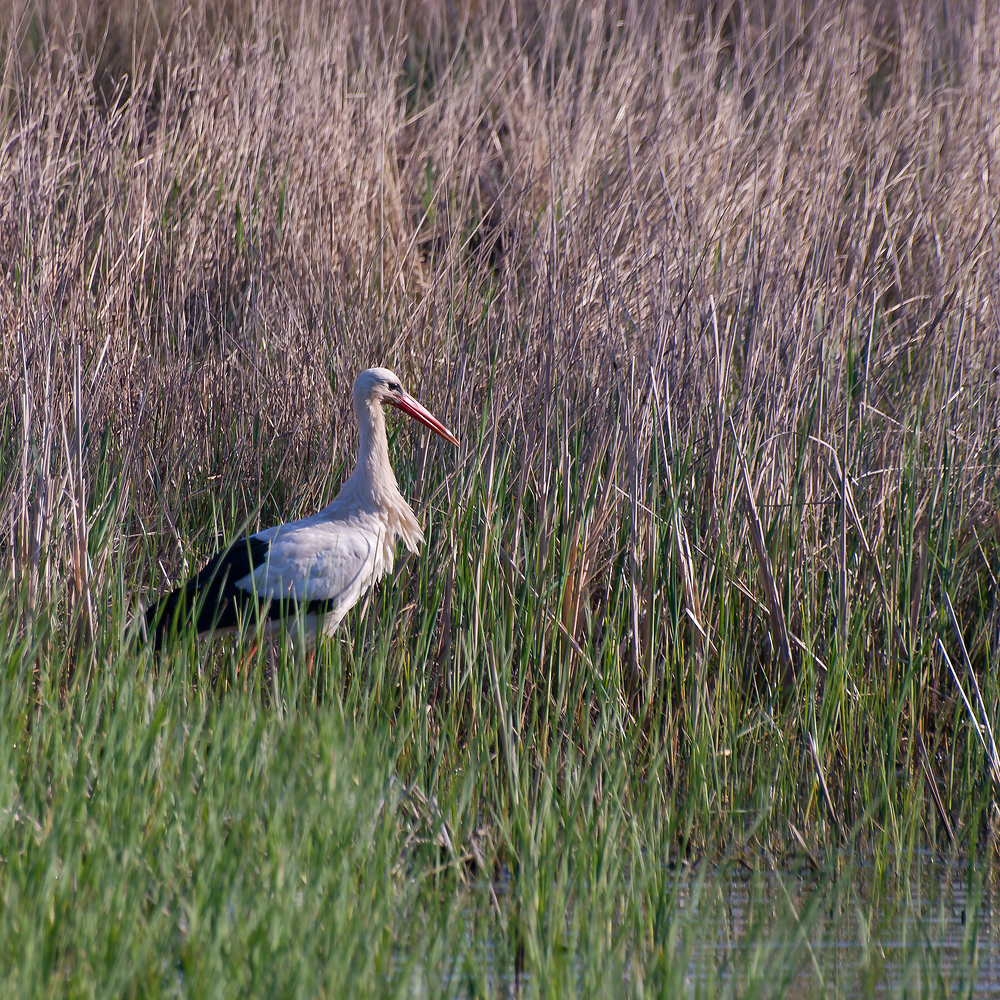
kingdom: Animalia
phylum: Chordata
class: Aves
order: Ciconiiformes
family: Ciconiidae
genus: Ciconia
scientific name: Ciconia ciconia
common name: White stork
